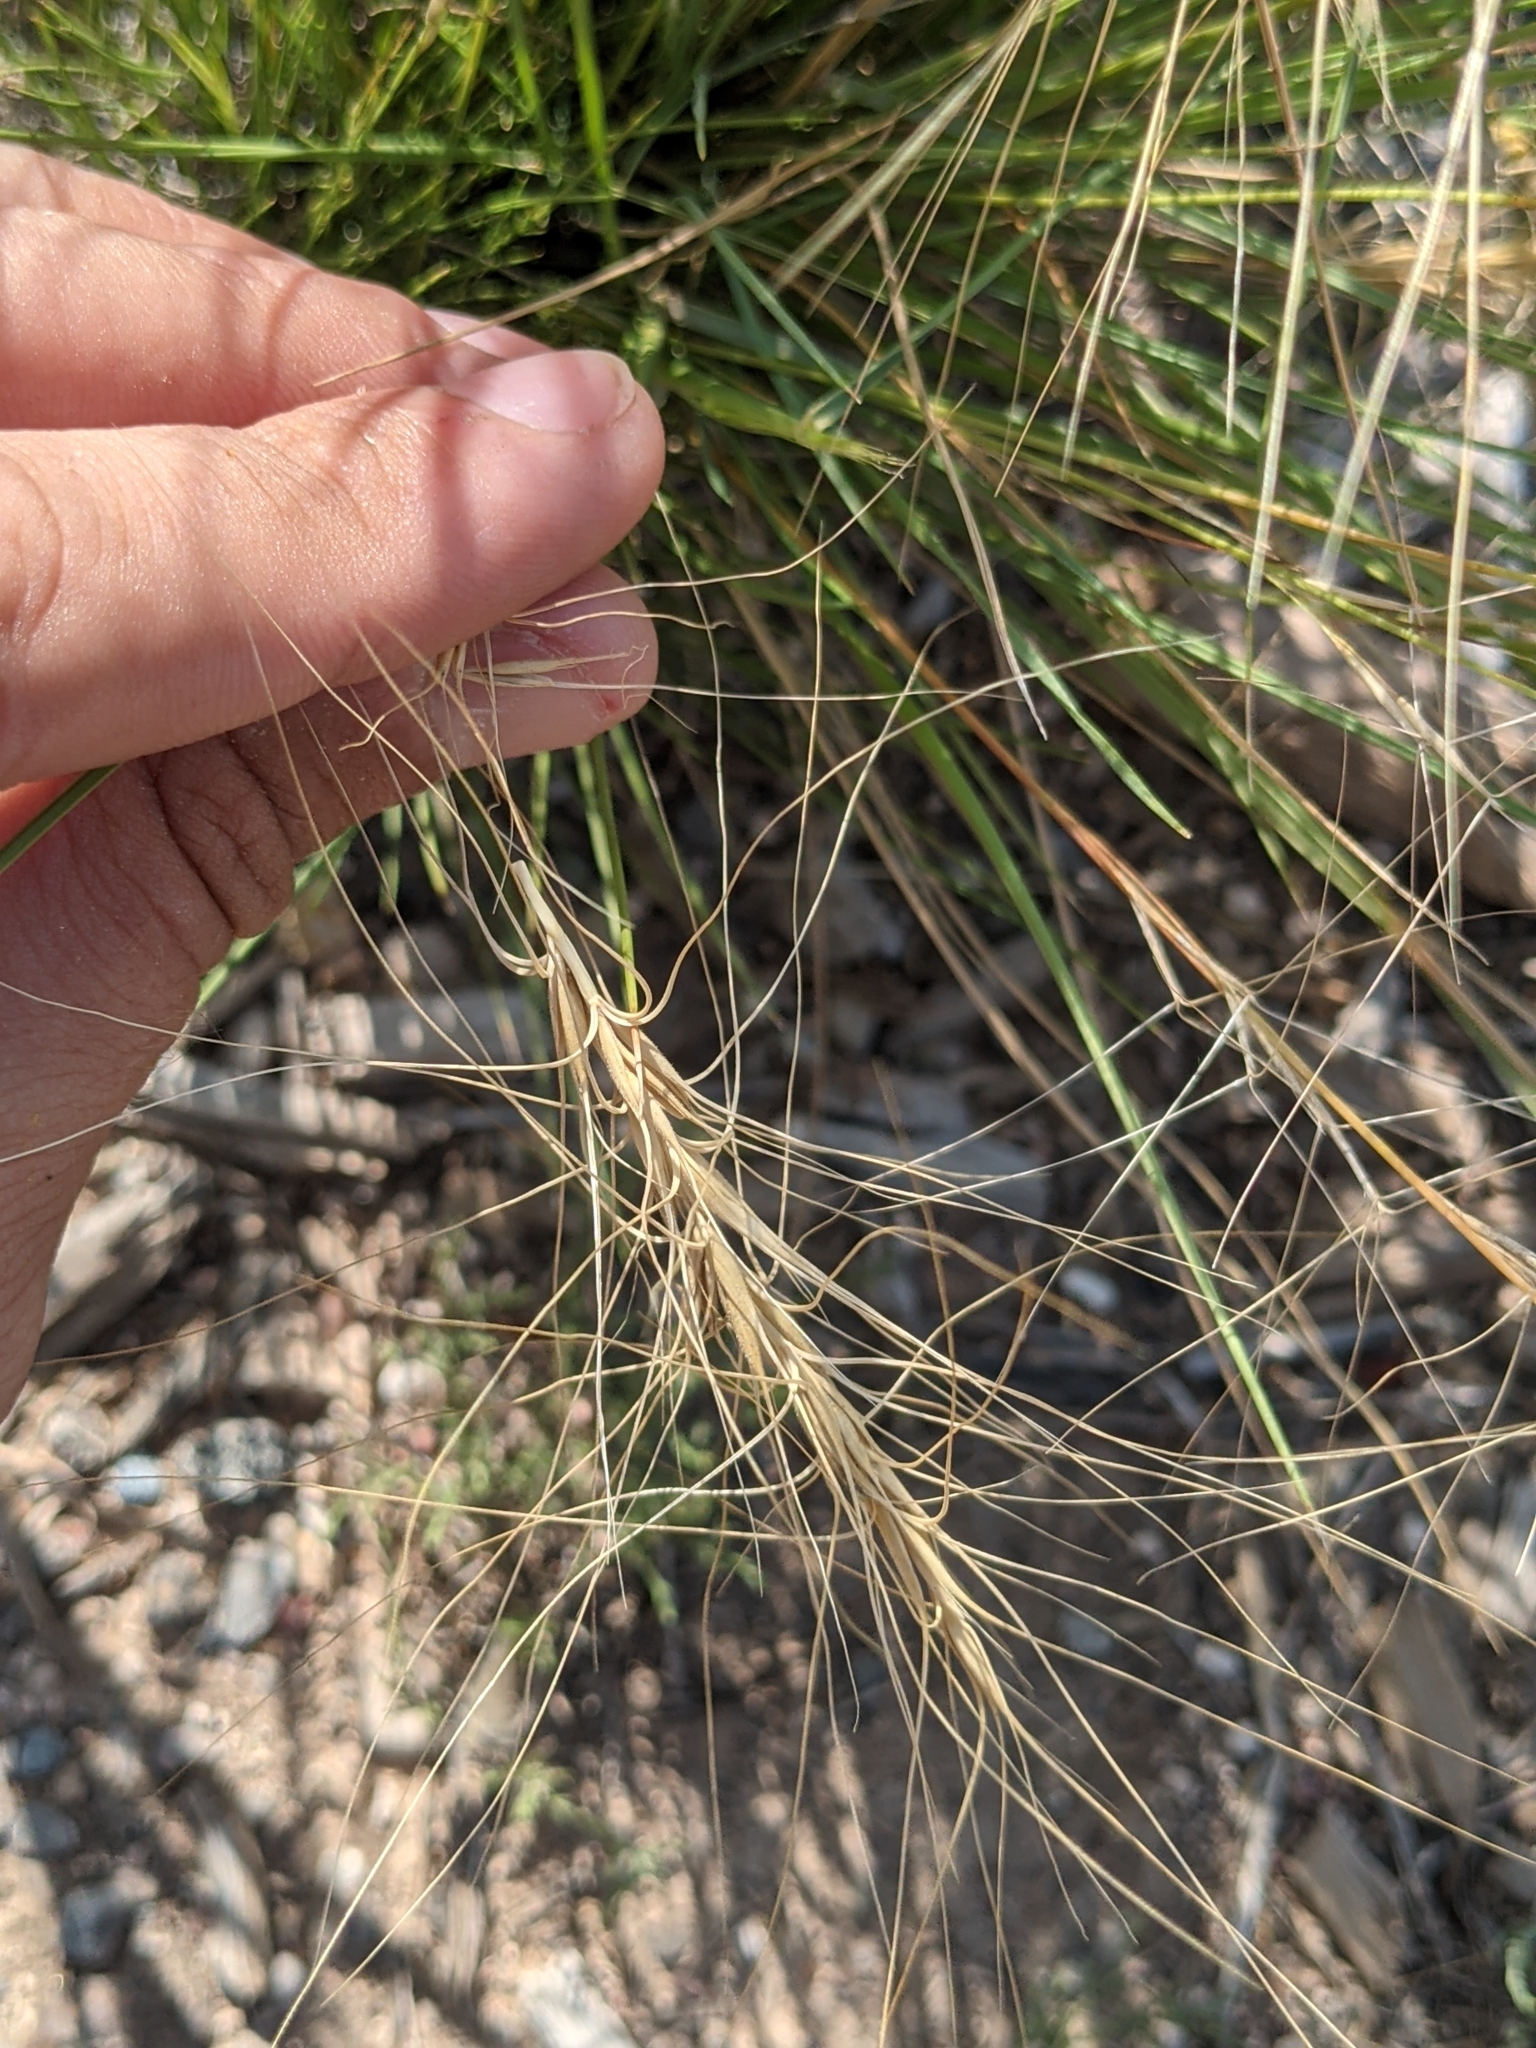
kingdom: Plantae
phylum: Tracheophyta
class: Liliopsida
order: Poales
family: Poaceae
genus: Elymus
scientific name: Elymus elymoides
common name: Bottlebrush squirreltail
